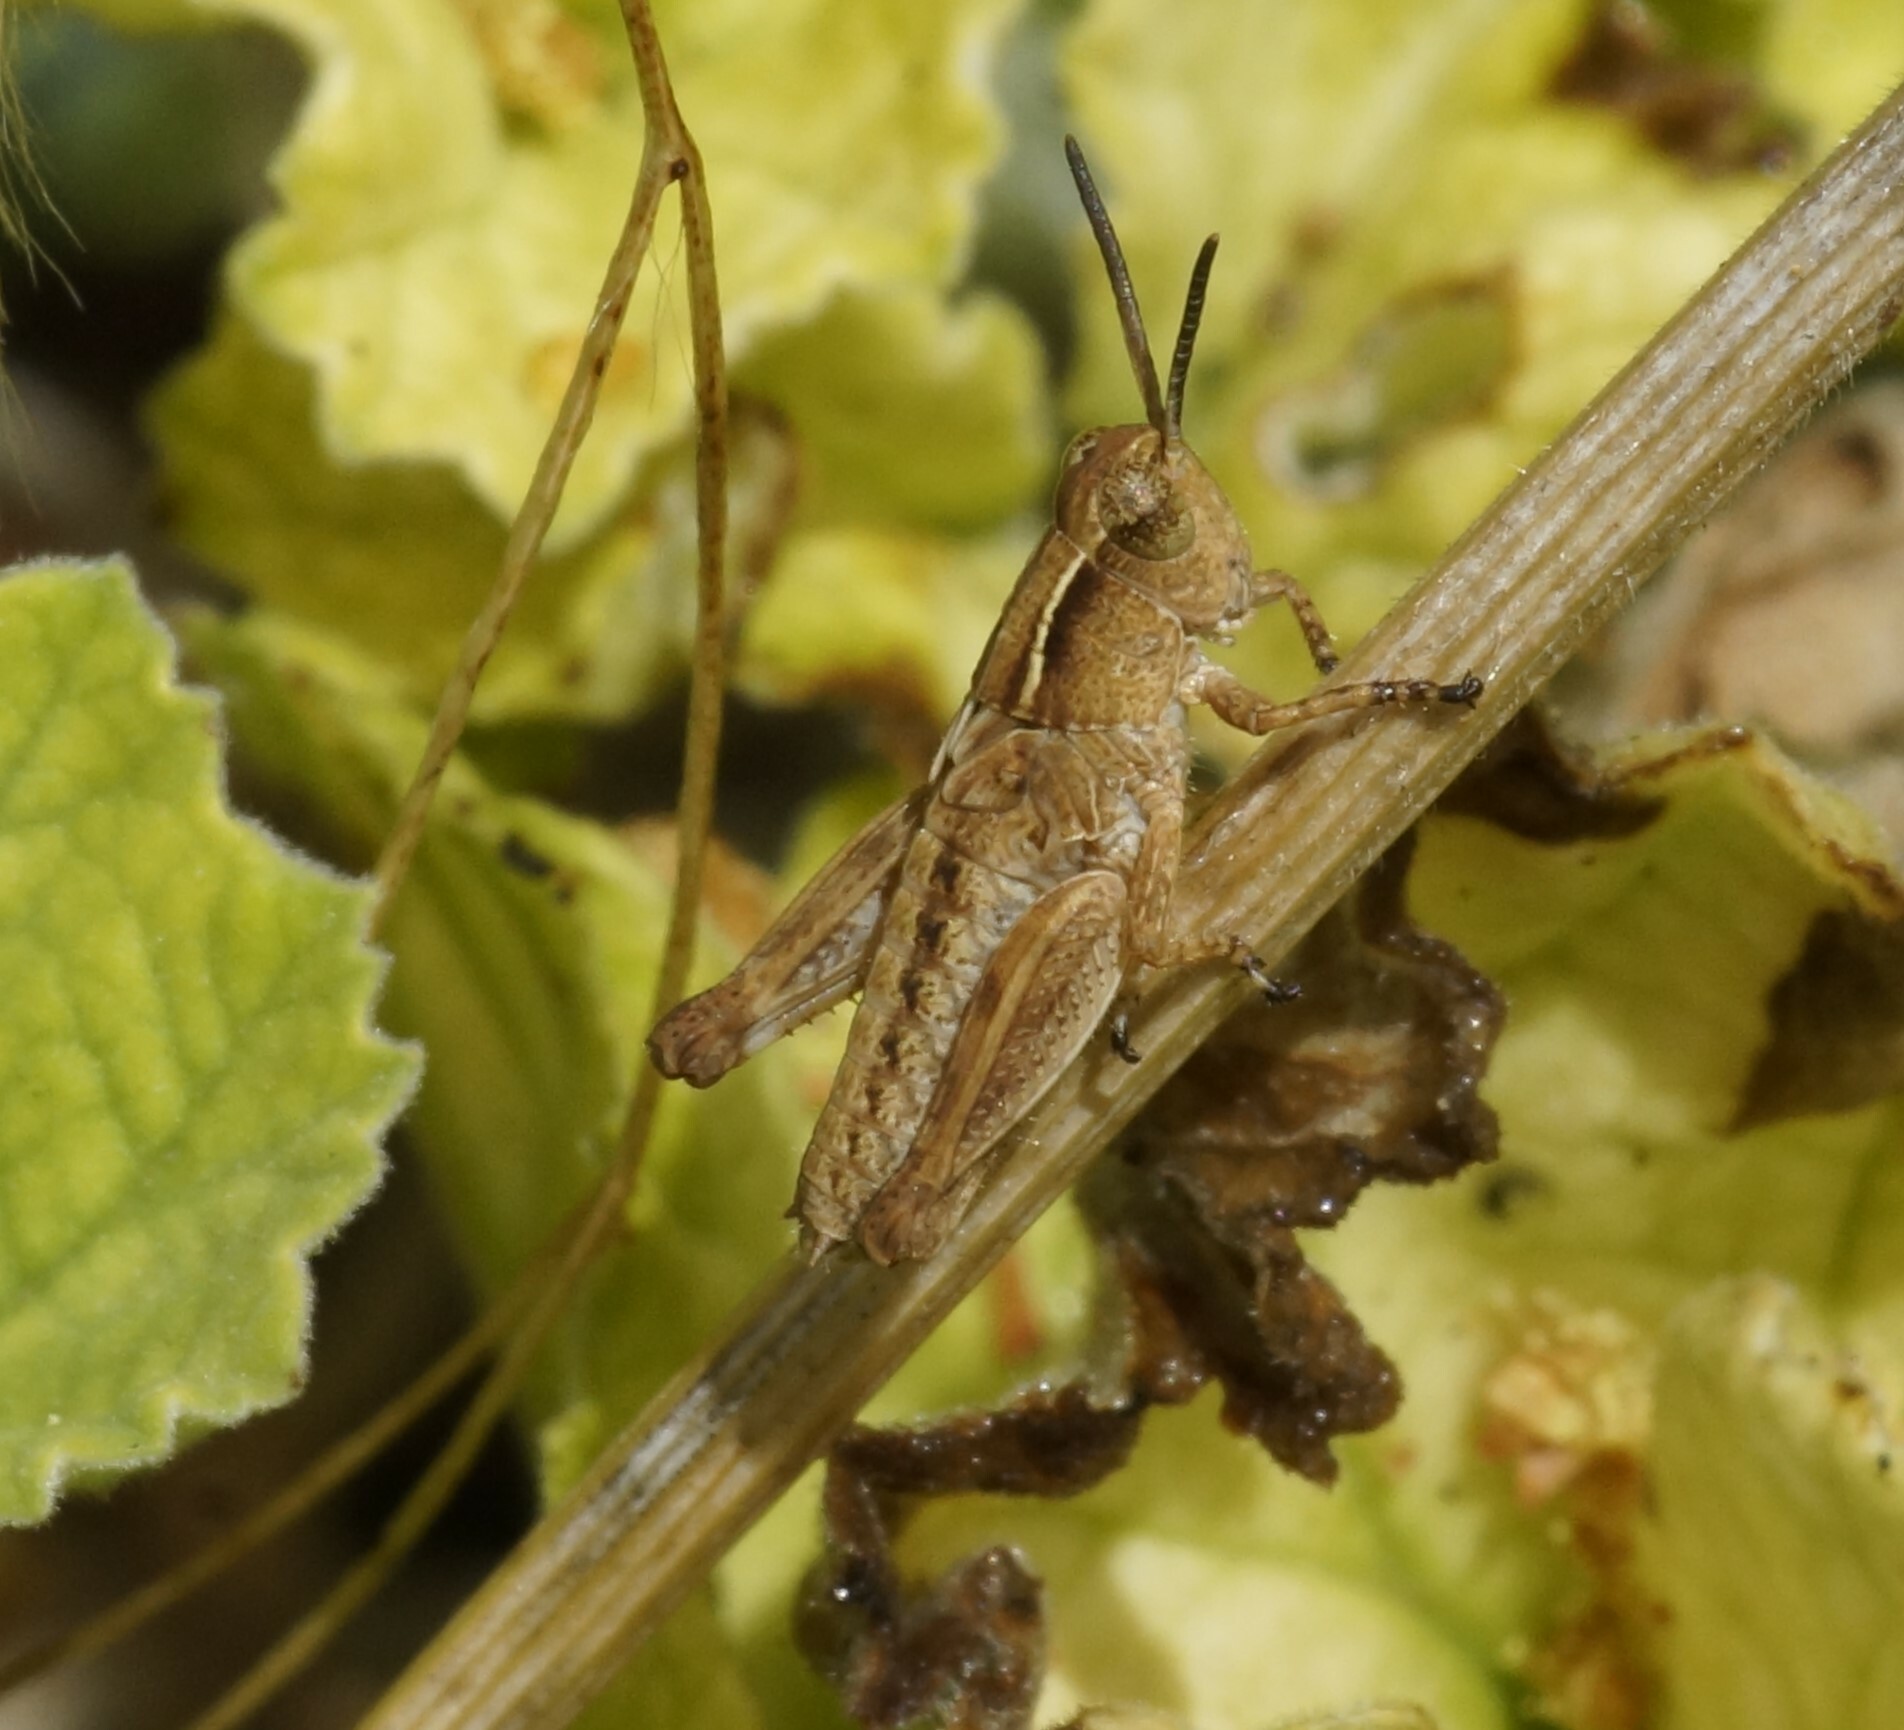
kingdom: Animalia
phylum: Arthropoda
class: Insecta
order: Orthoptera
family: Acrididae
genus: Phaulacridium
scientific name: Phaulacridium vittatum
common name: Wingless grasshopper
